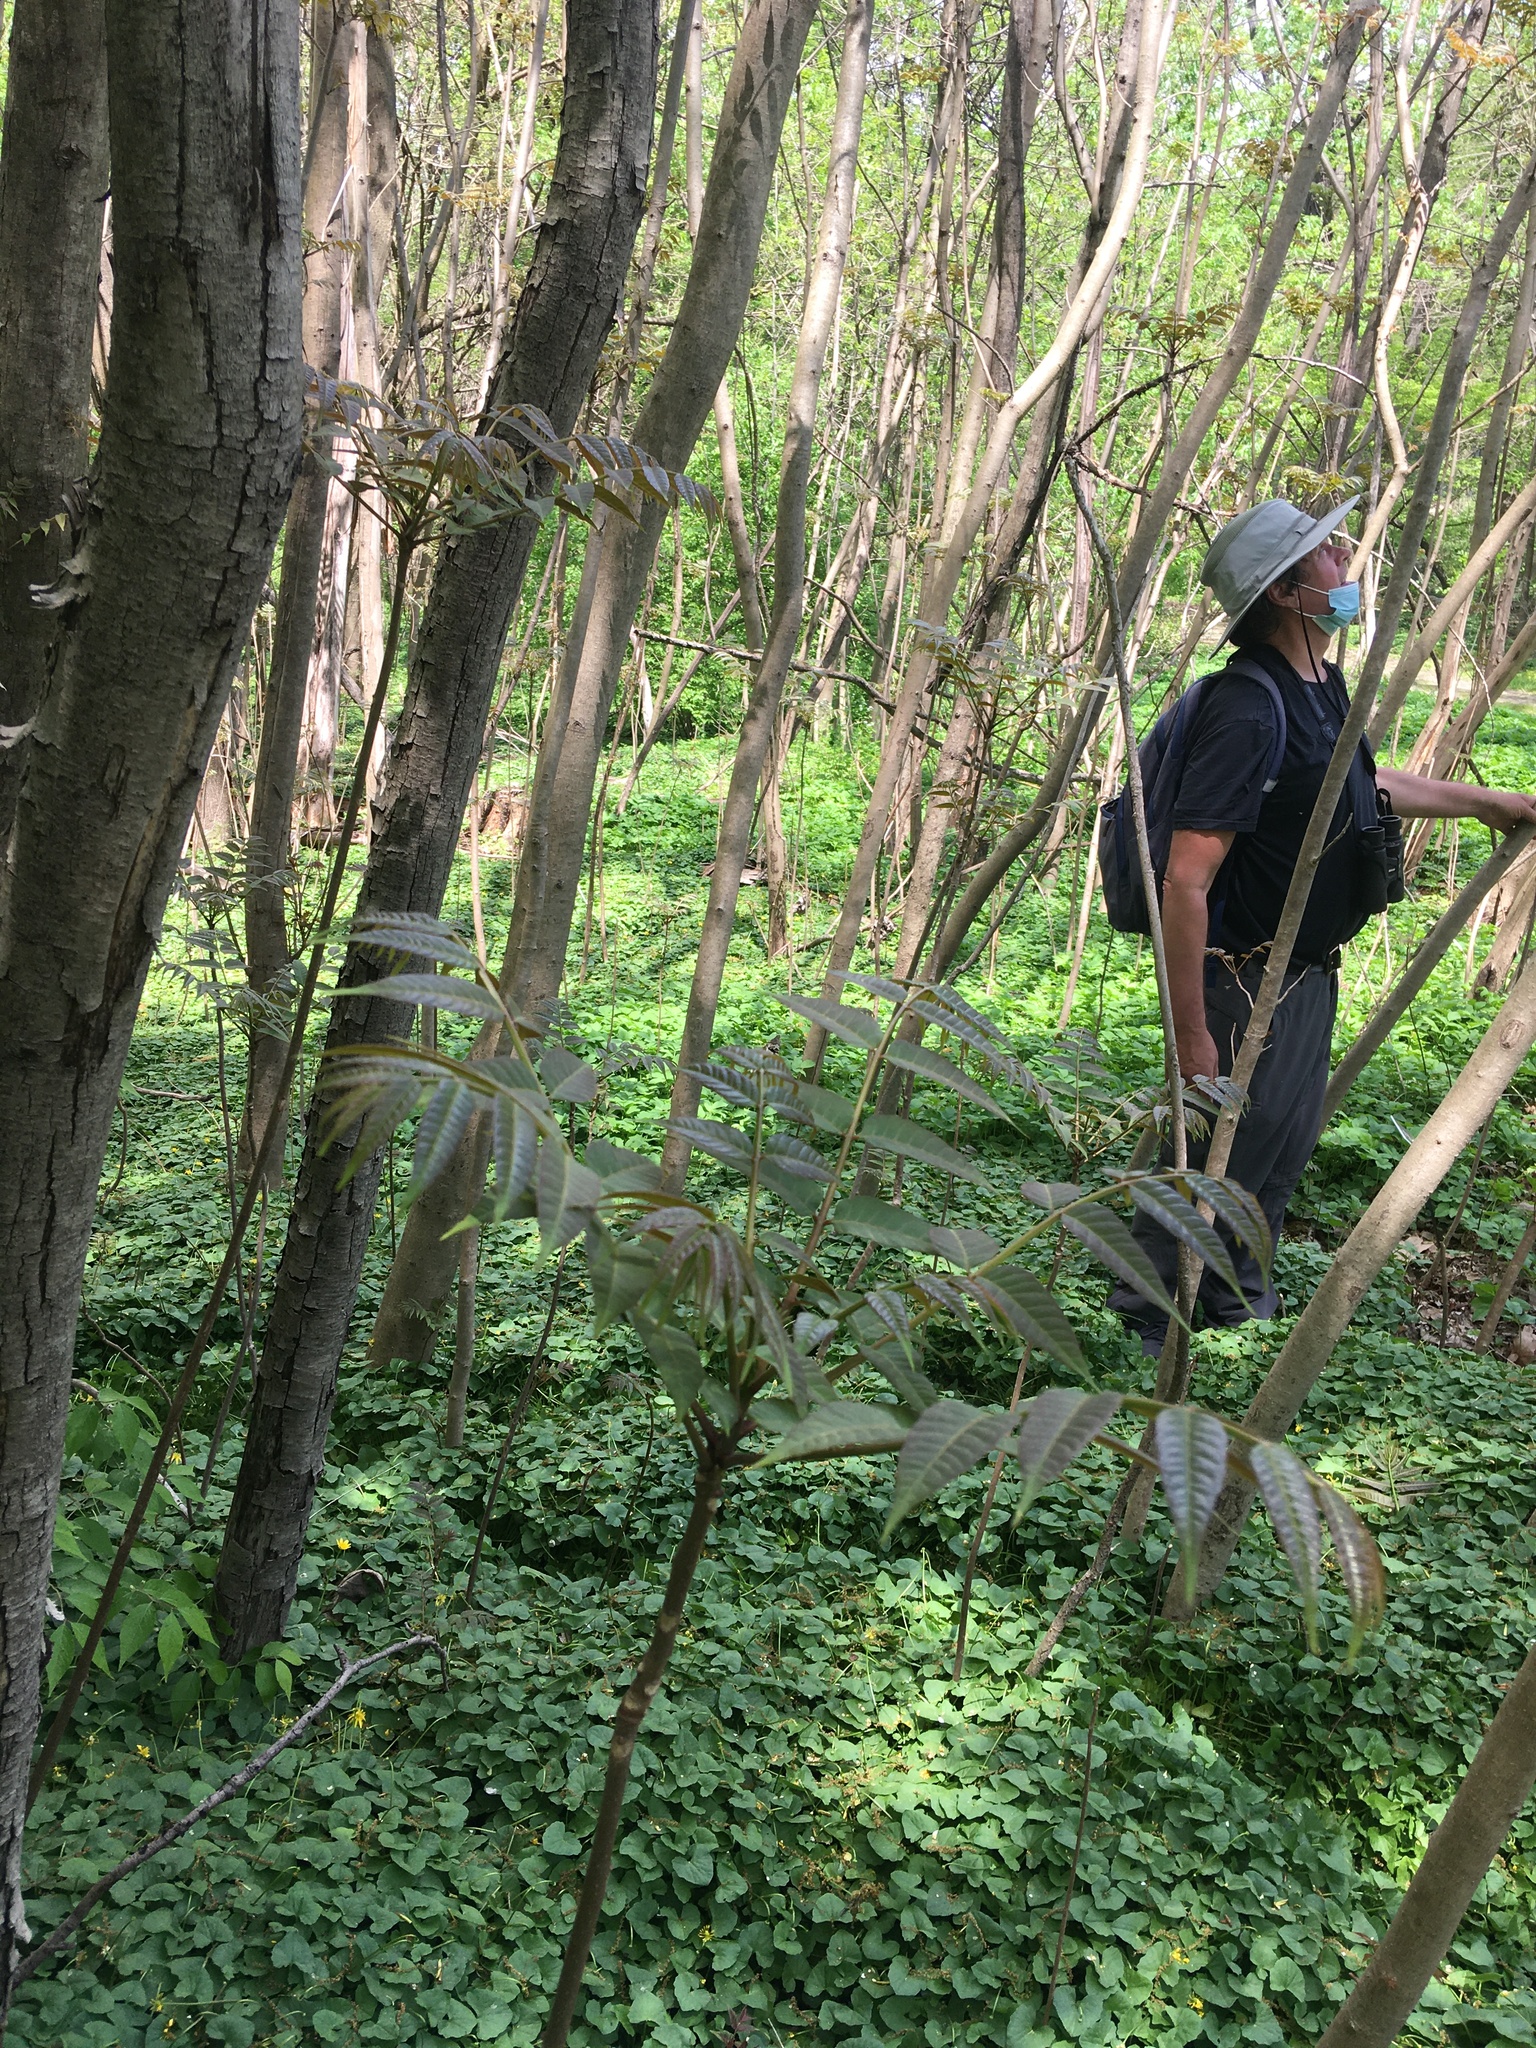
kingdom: Plantae
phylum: Tracheophyta
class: Magnoliopsida
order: Sapindales
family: Meliaceae
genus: Toona
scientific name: Toona sinensis
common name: Red toon
